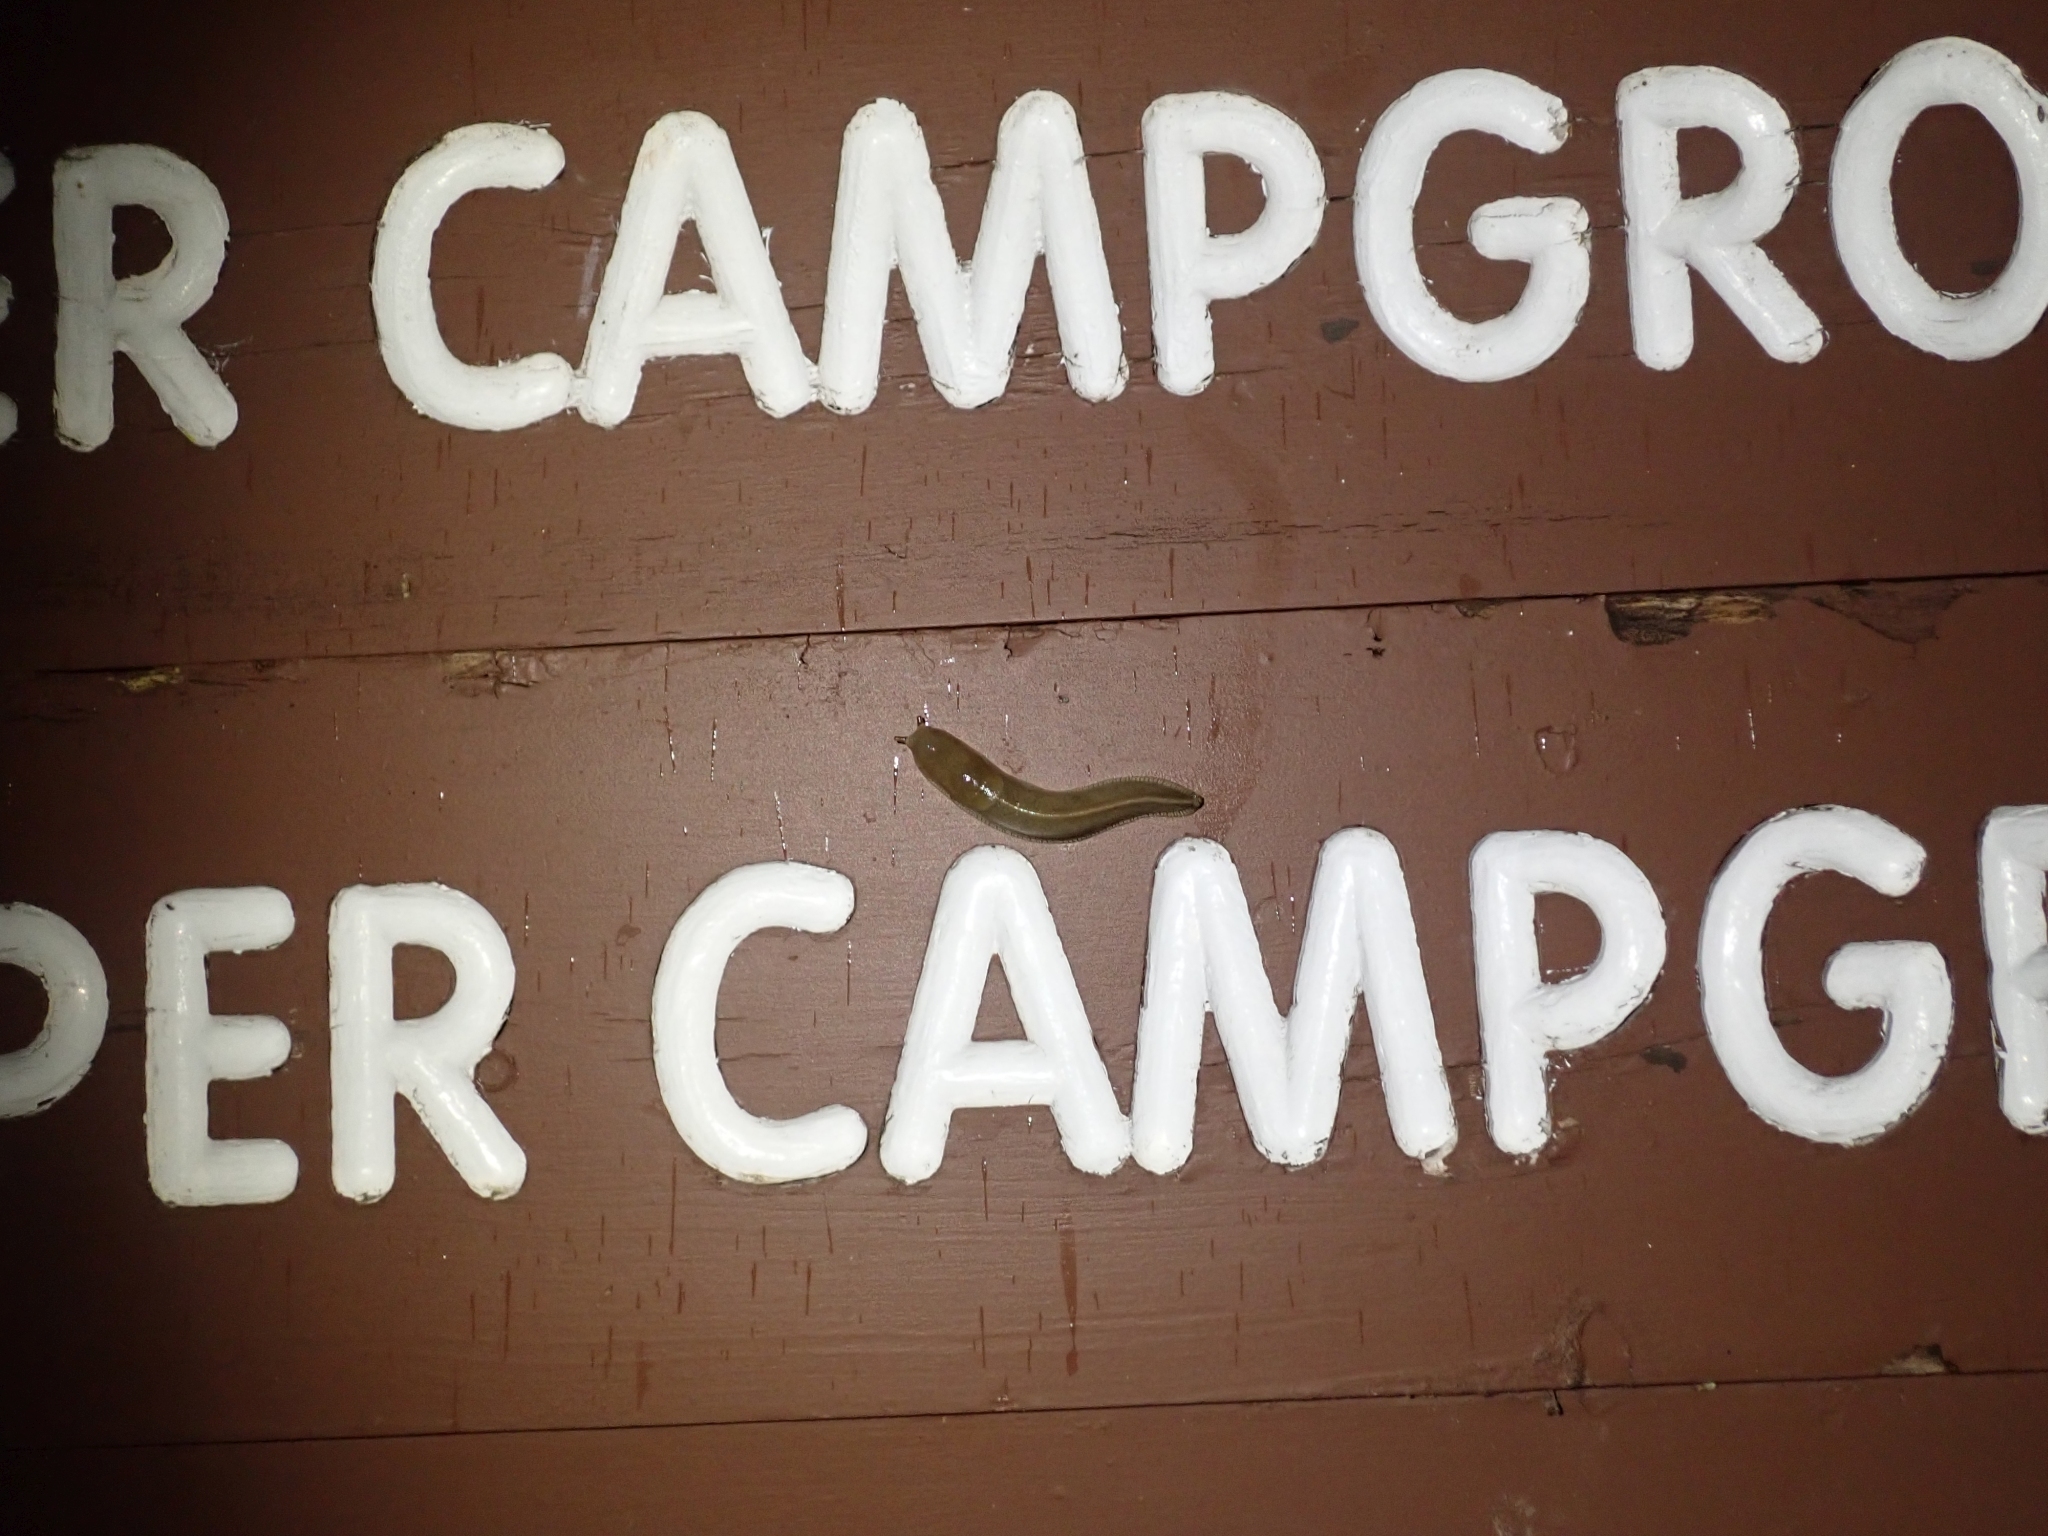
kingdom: Animalia
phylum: Mollusca
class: Gastropoda
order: Stylommatophora
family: Ariolimacidae
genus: Ariolimax
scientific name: Ariolimax columbianus
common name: Pacific banana slug
